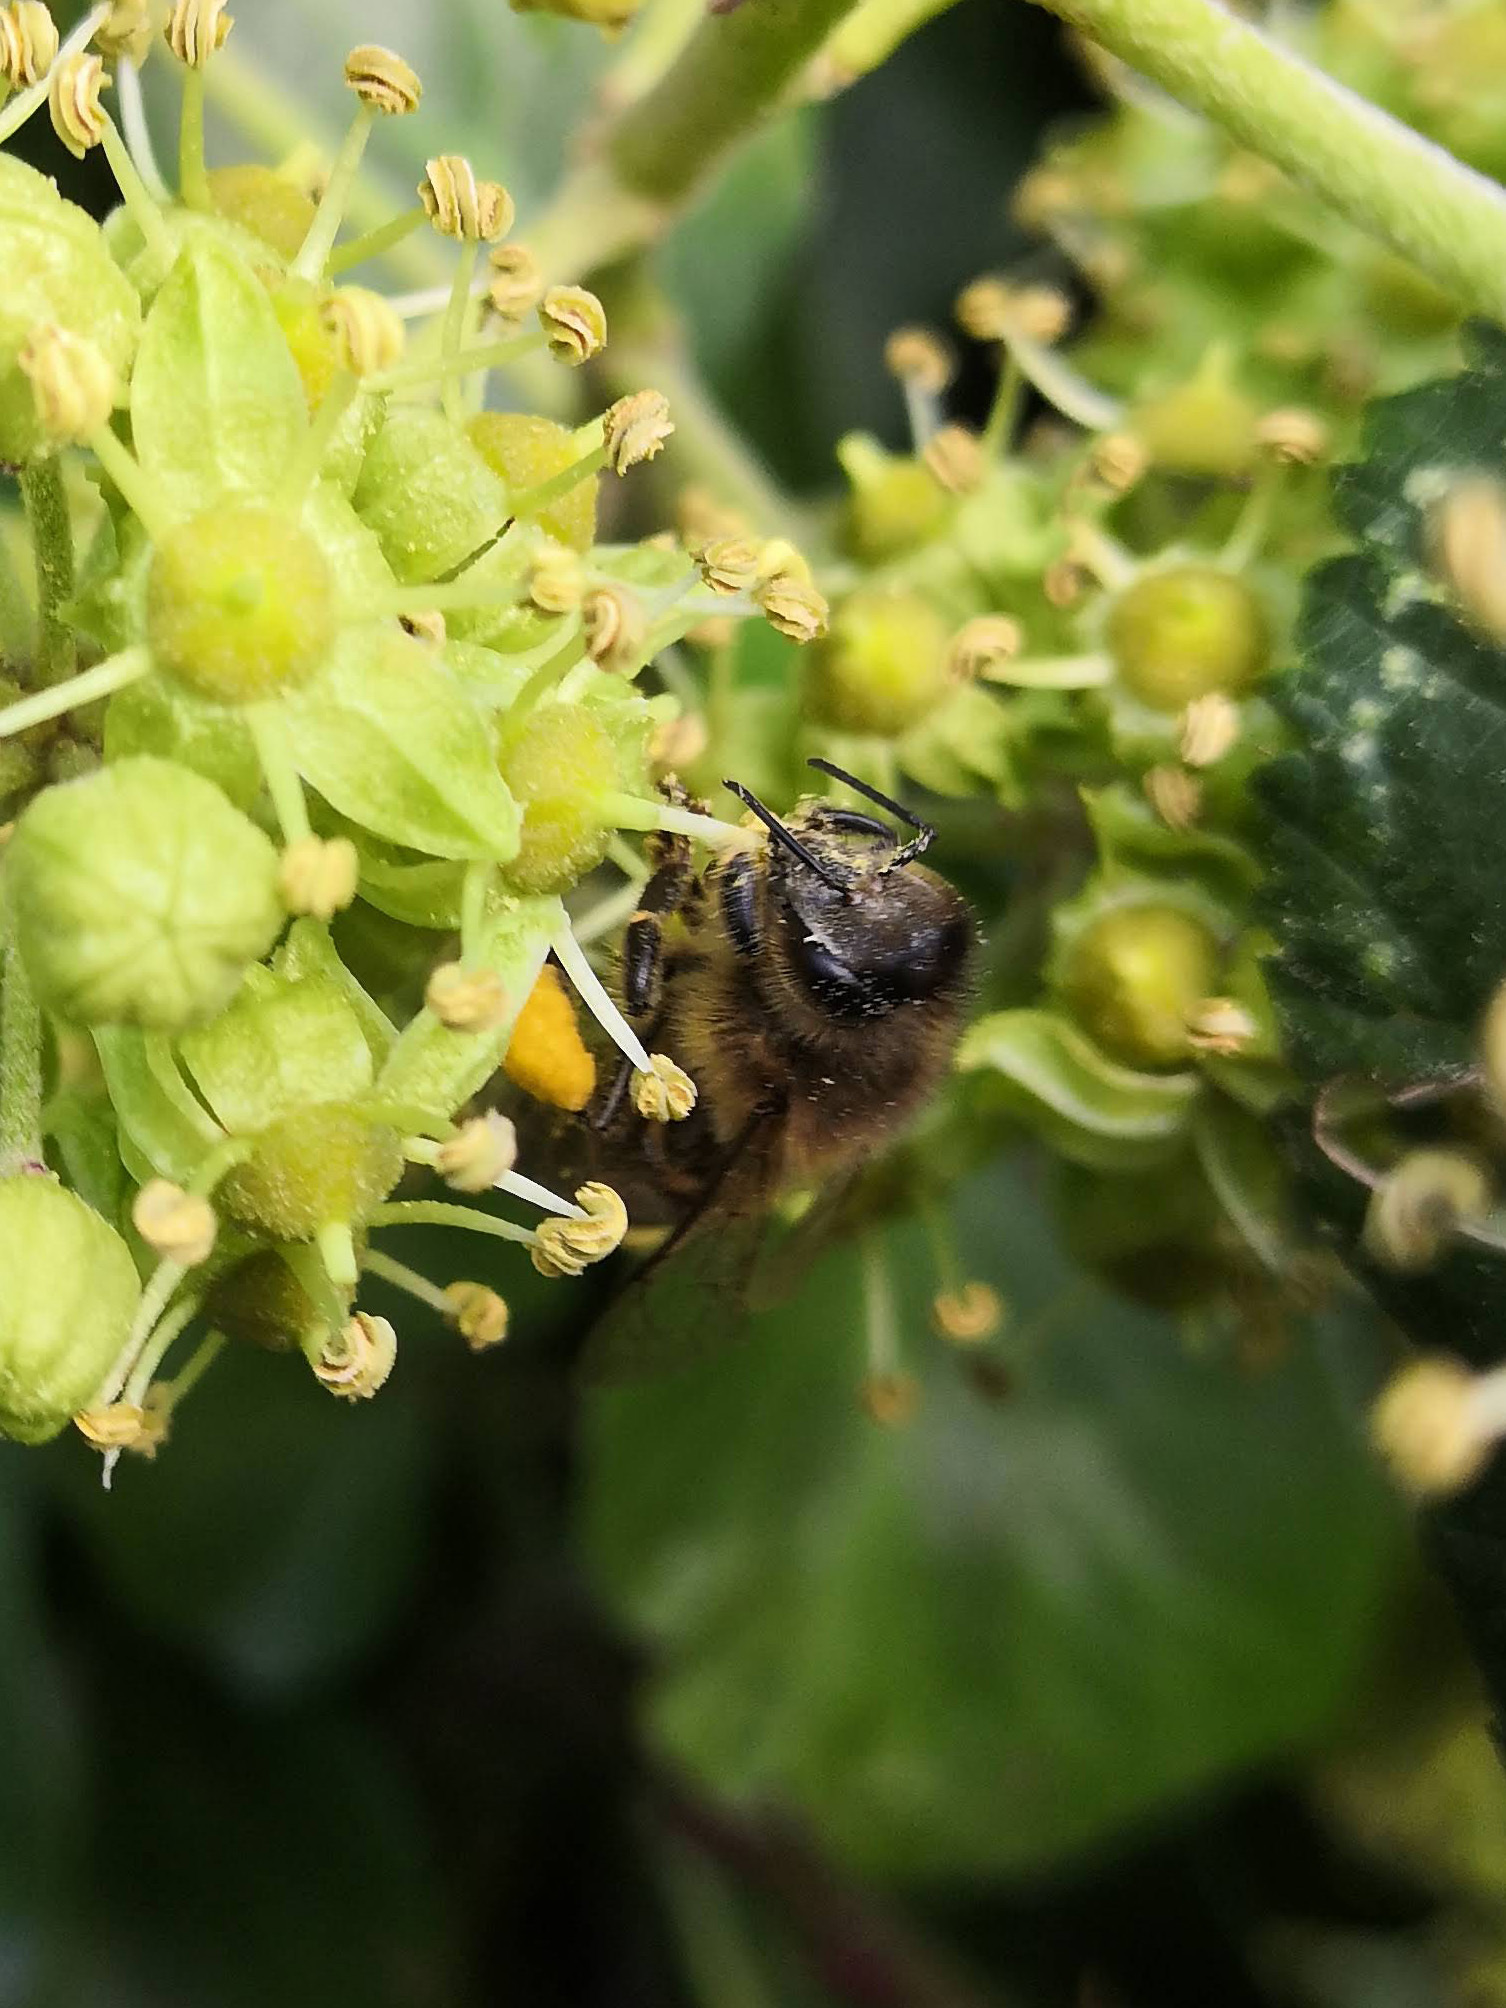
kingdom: Animalia
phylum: Arthropoda
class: Insecta
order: Hymenoptera
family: Apidae
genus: Apis
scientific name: Apis mellifera
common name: Honey bee
